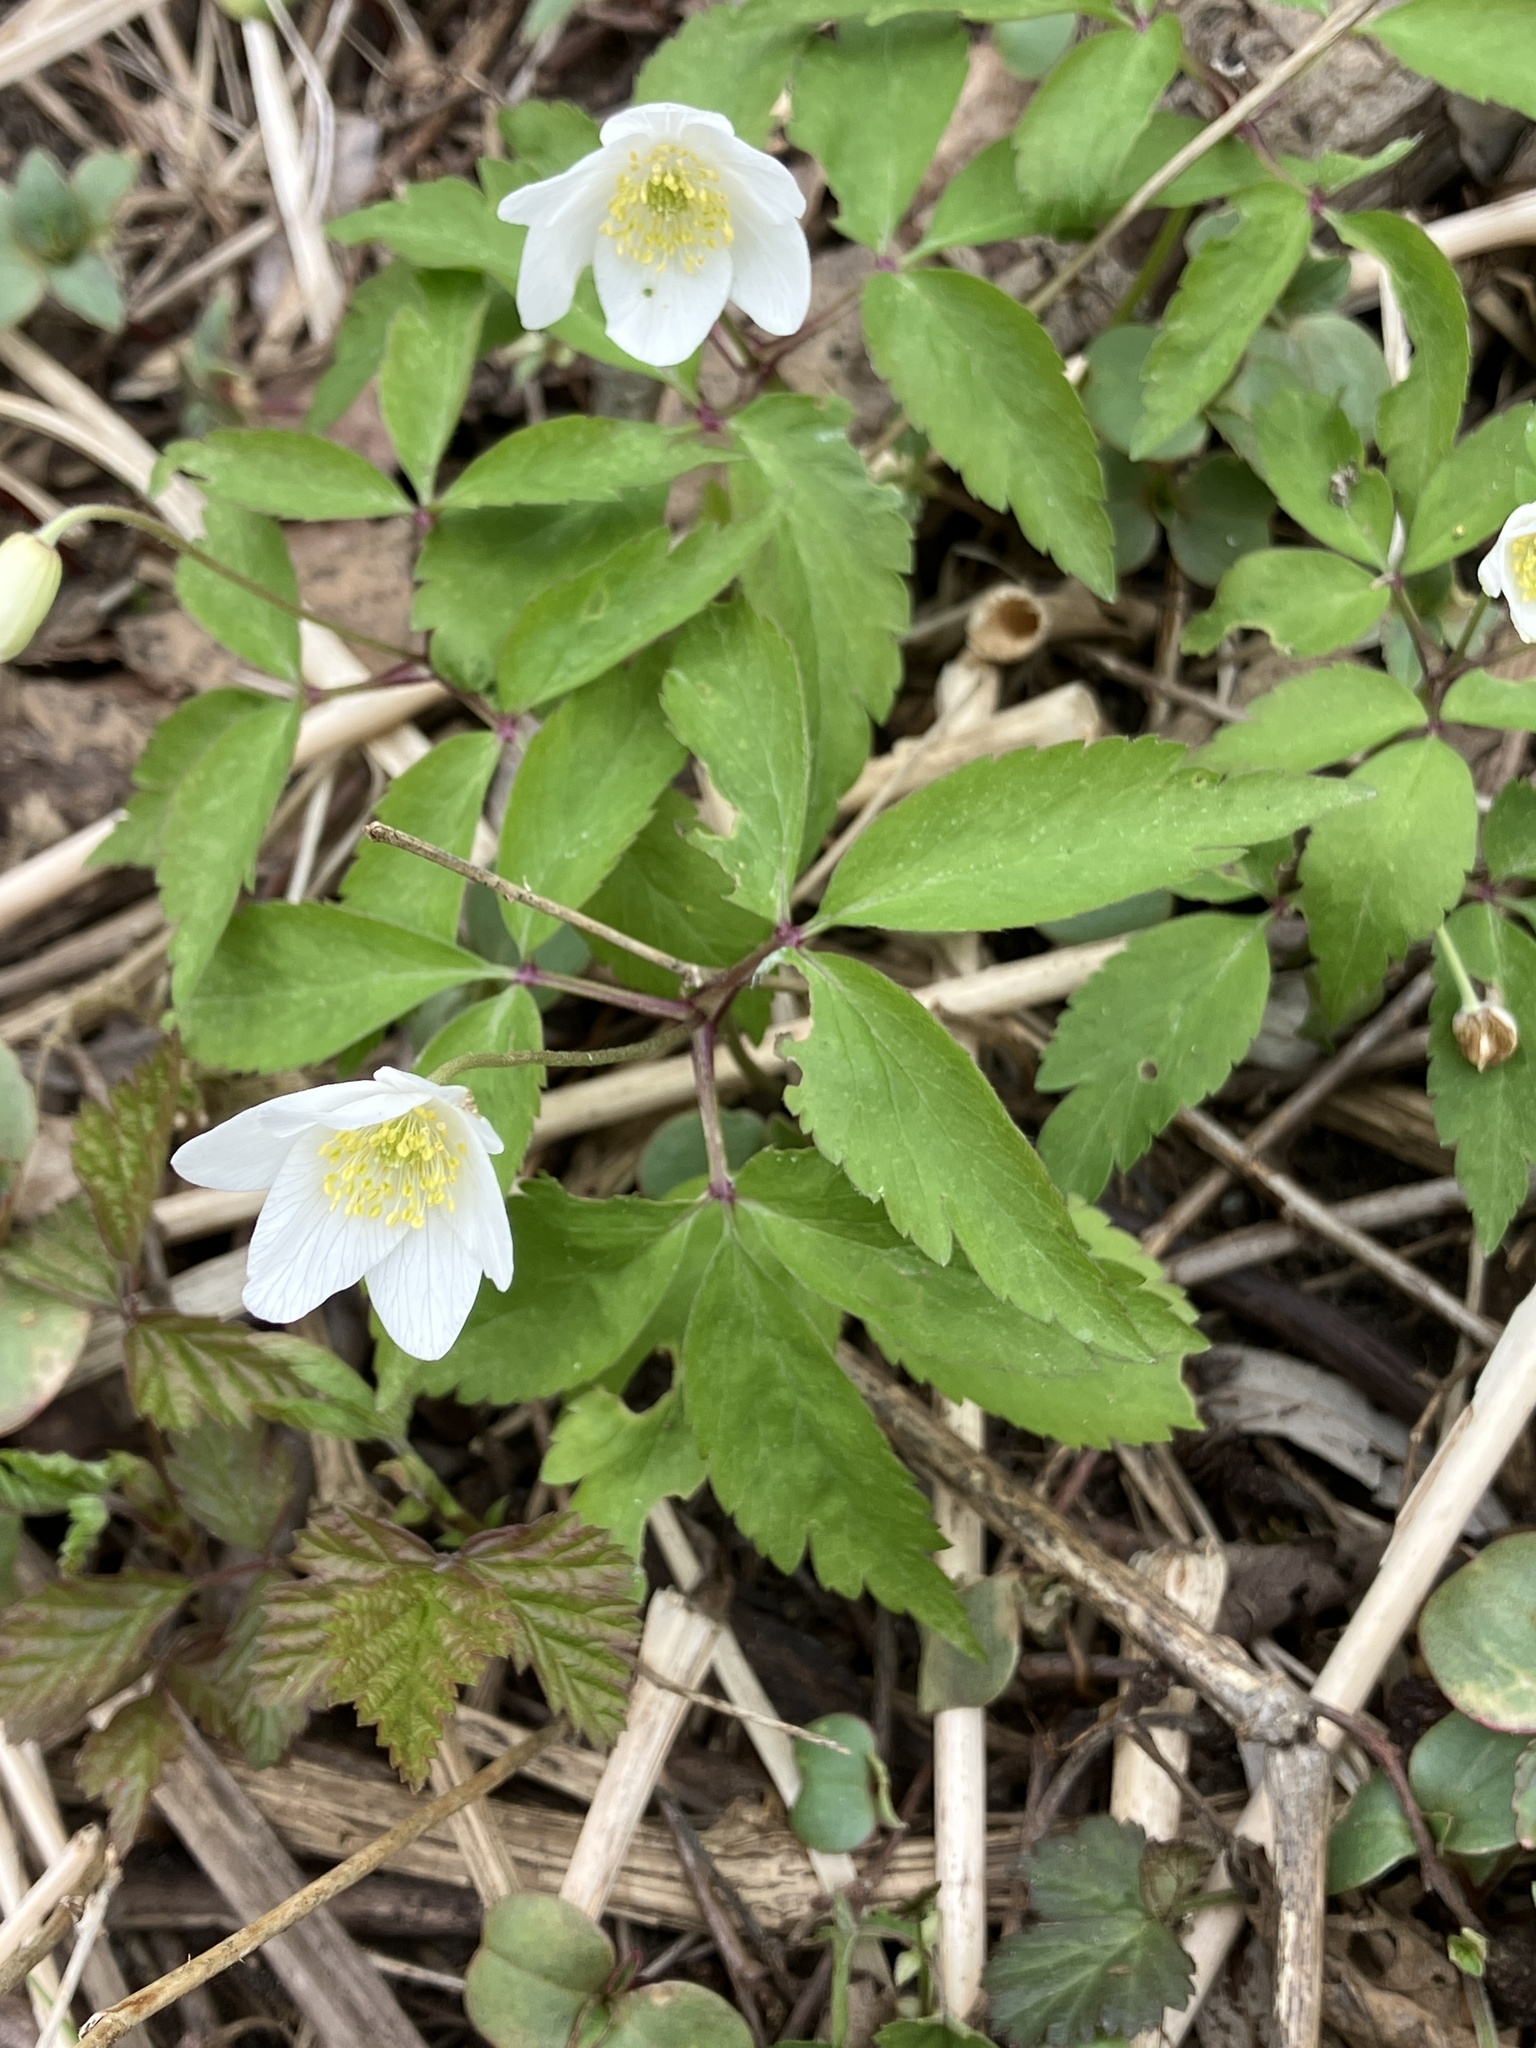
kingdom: Plantae
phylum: Tracheophyta
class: Magnoliopsida
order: Ranunculales
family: Ranunculaceae
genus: Anemone
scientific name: Anemone nemorosa
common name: Wood anemone
